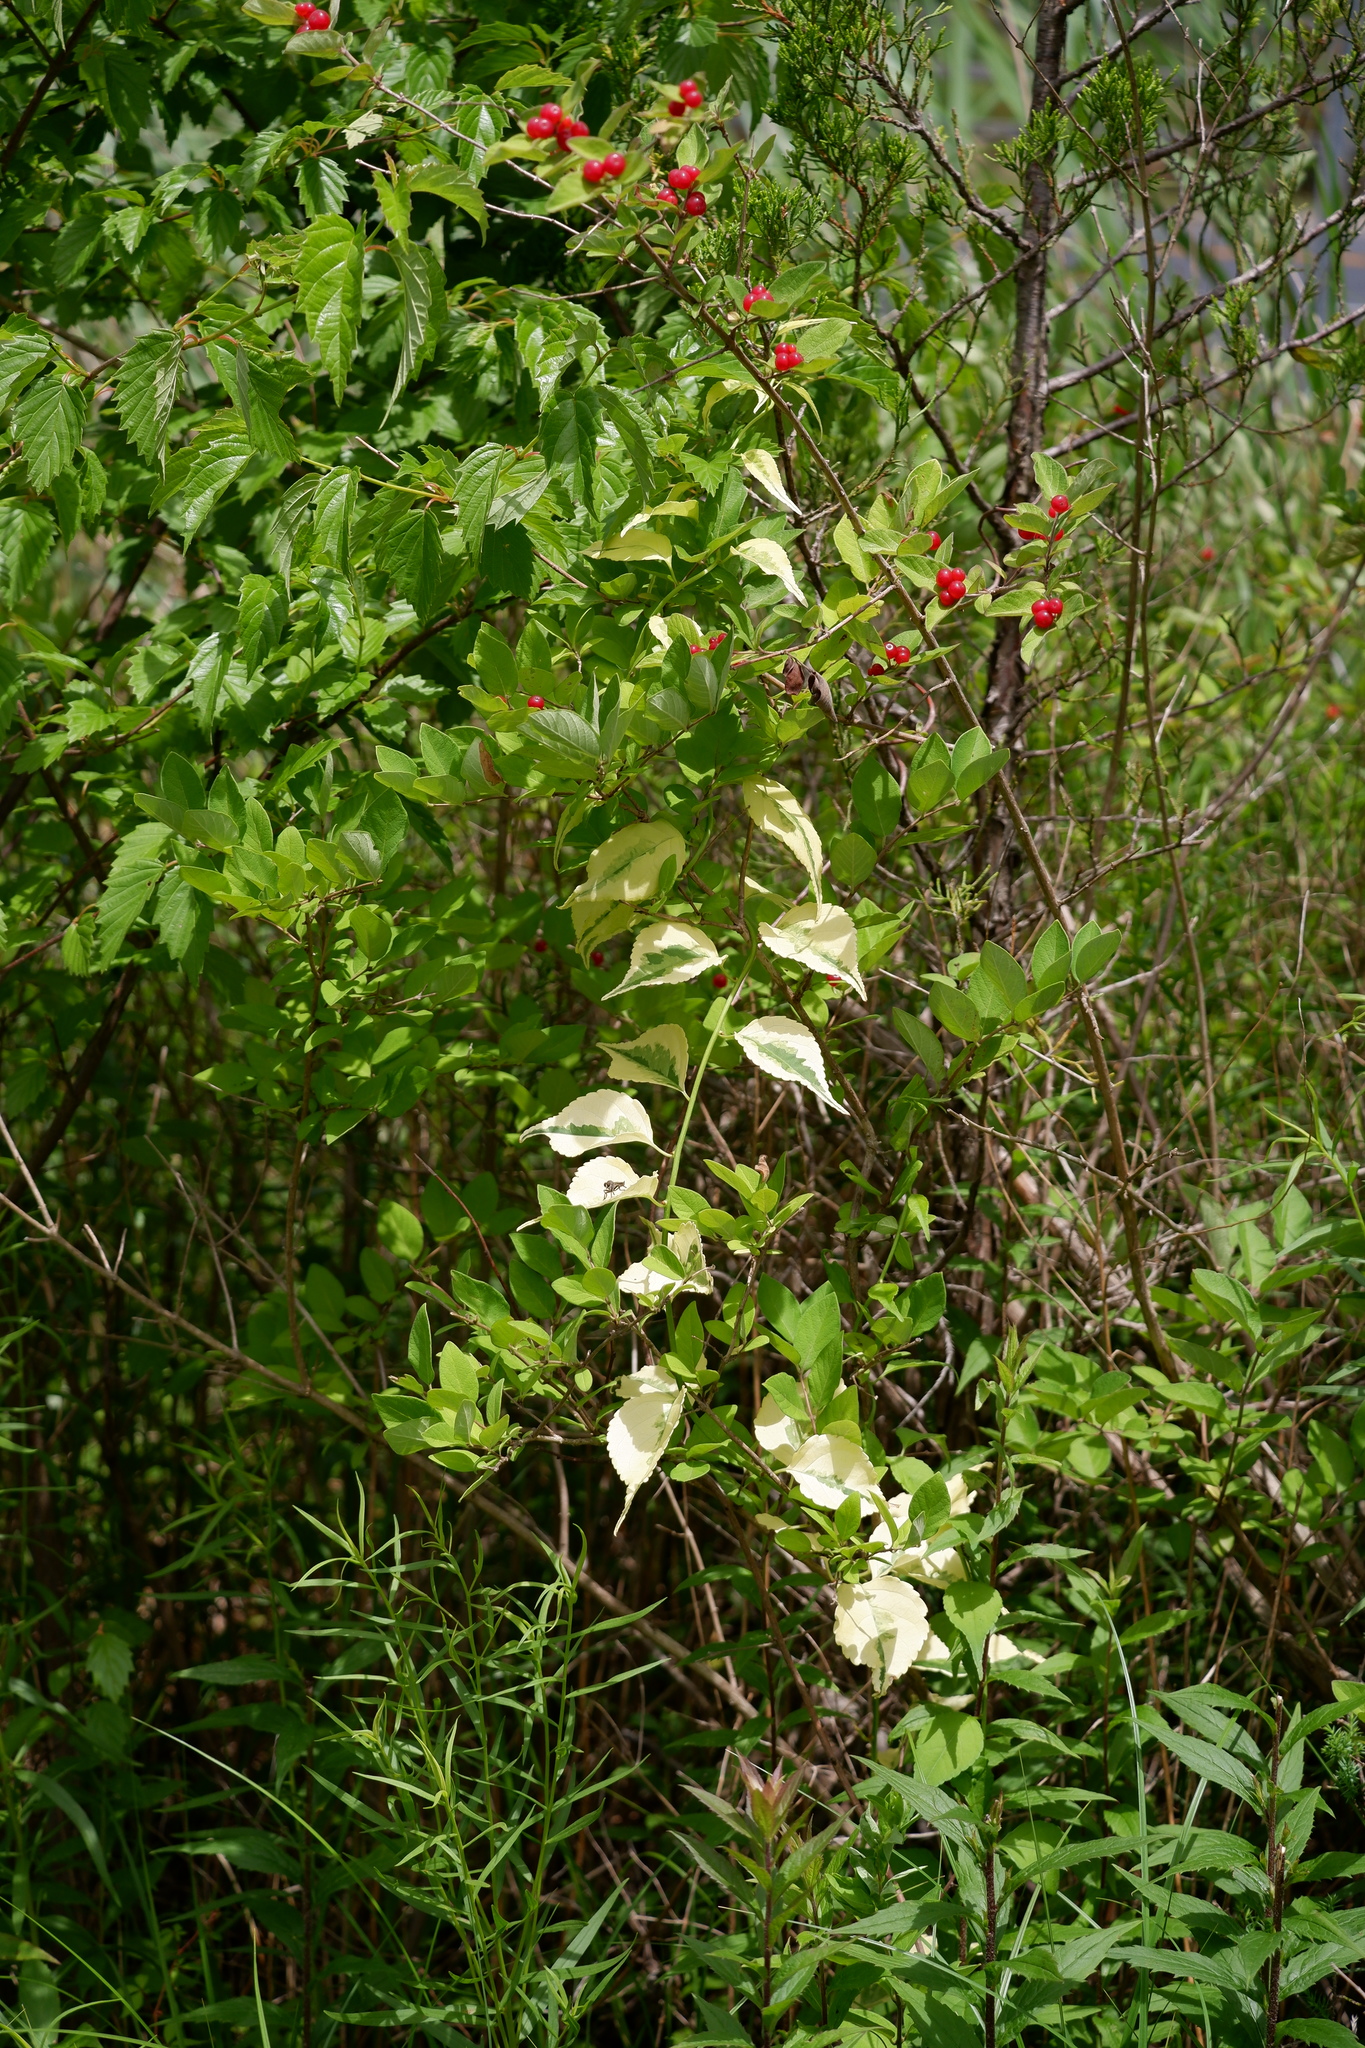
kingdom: Plantae
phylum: Tracheophyta
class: Magnoliopsida
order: Celastrales
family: Celastraceae
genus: Celastrus
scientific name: Celastrus orbiculatus
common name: Oriental bittersweet
